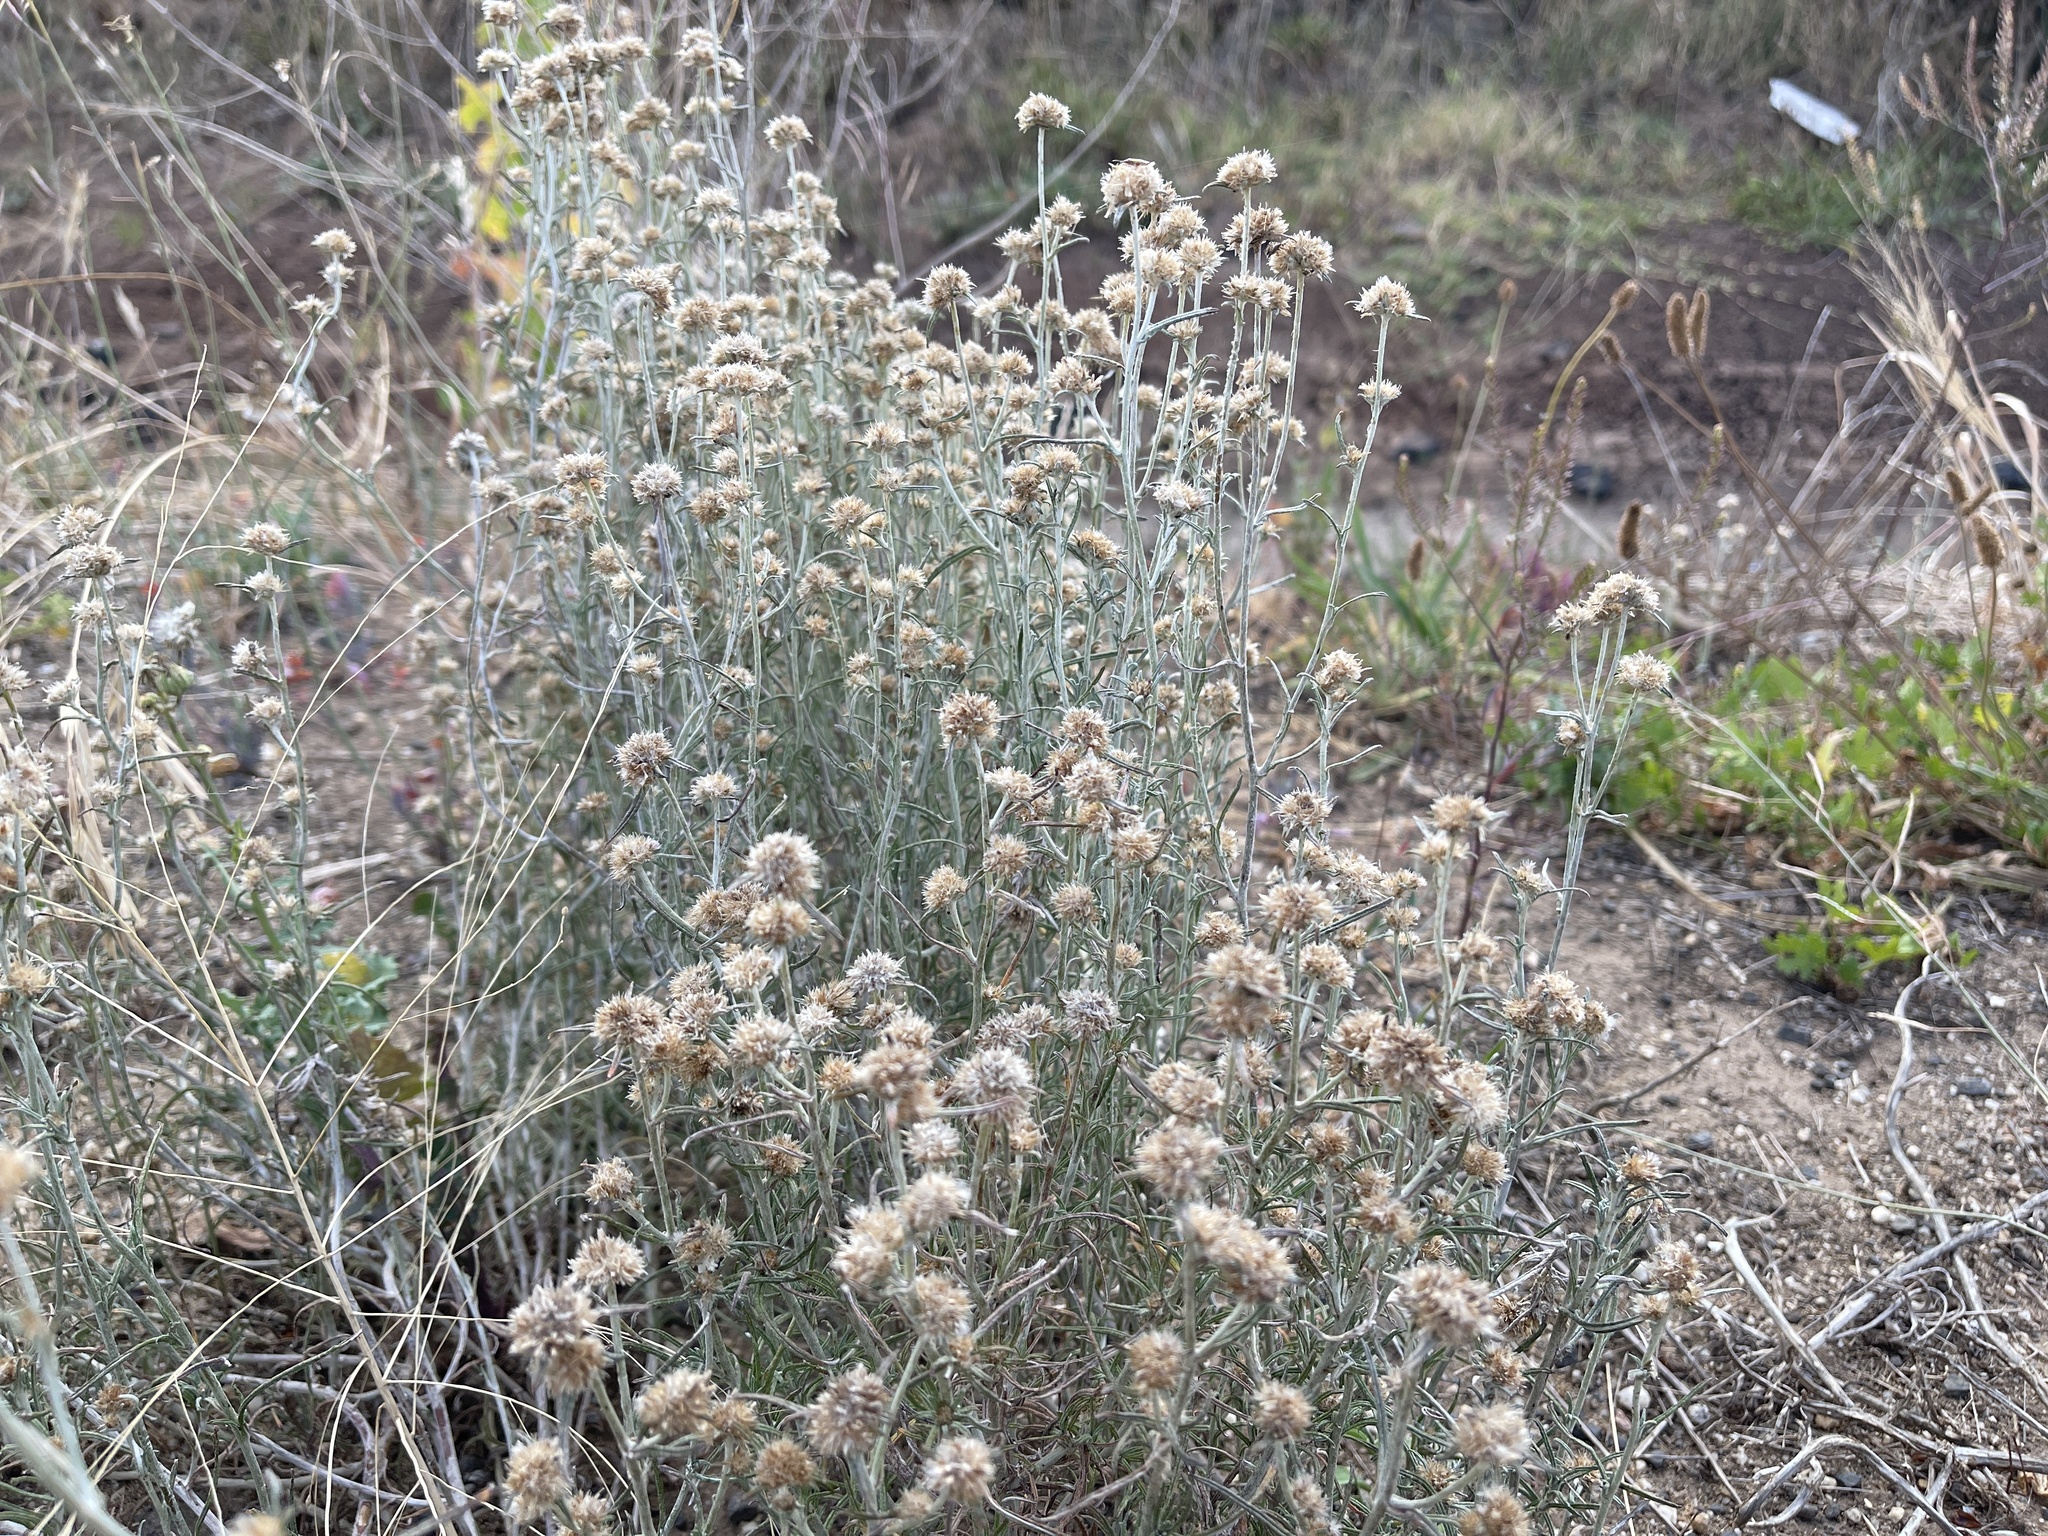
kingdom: Plantae
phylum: Tracheophyta
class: Magnoliopsida
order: Asterales
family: Asteraceae
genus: Euchiton
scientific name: Euchiton sphaericus
